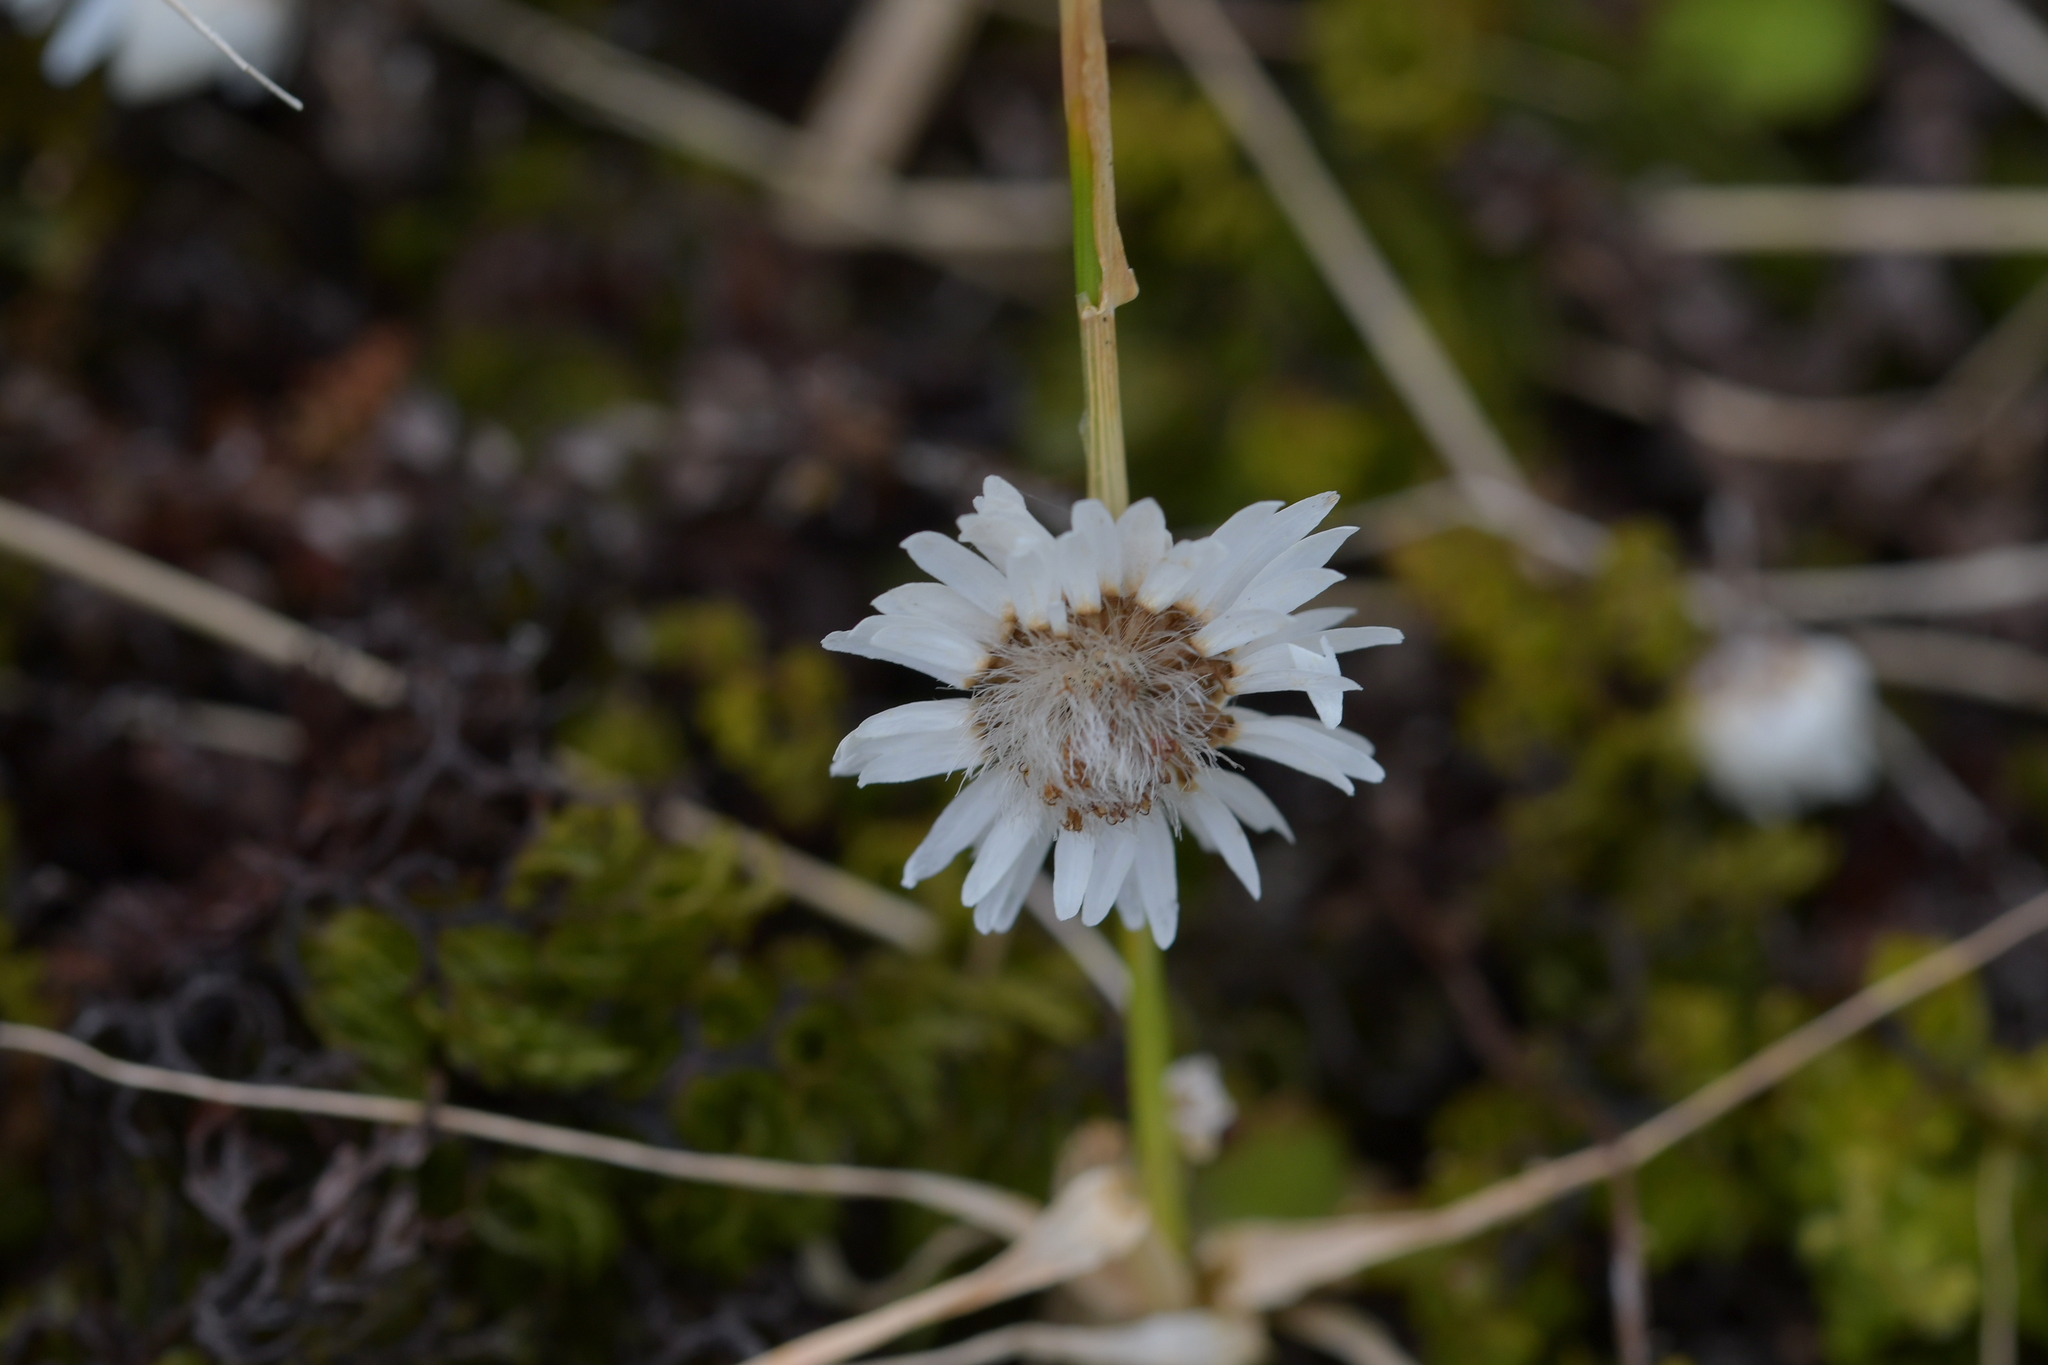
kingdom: Plantae
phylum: Tracheophyta
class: Magnoliopsida
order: Asterales
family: Asteraceae
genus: Anaphalioides
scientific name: Anaphalioides bellidioides
